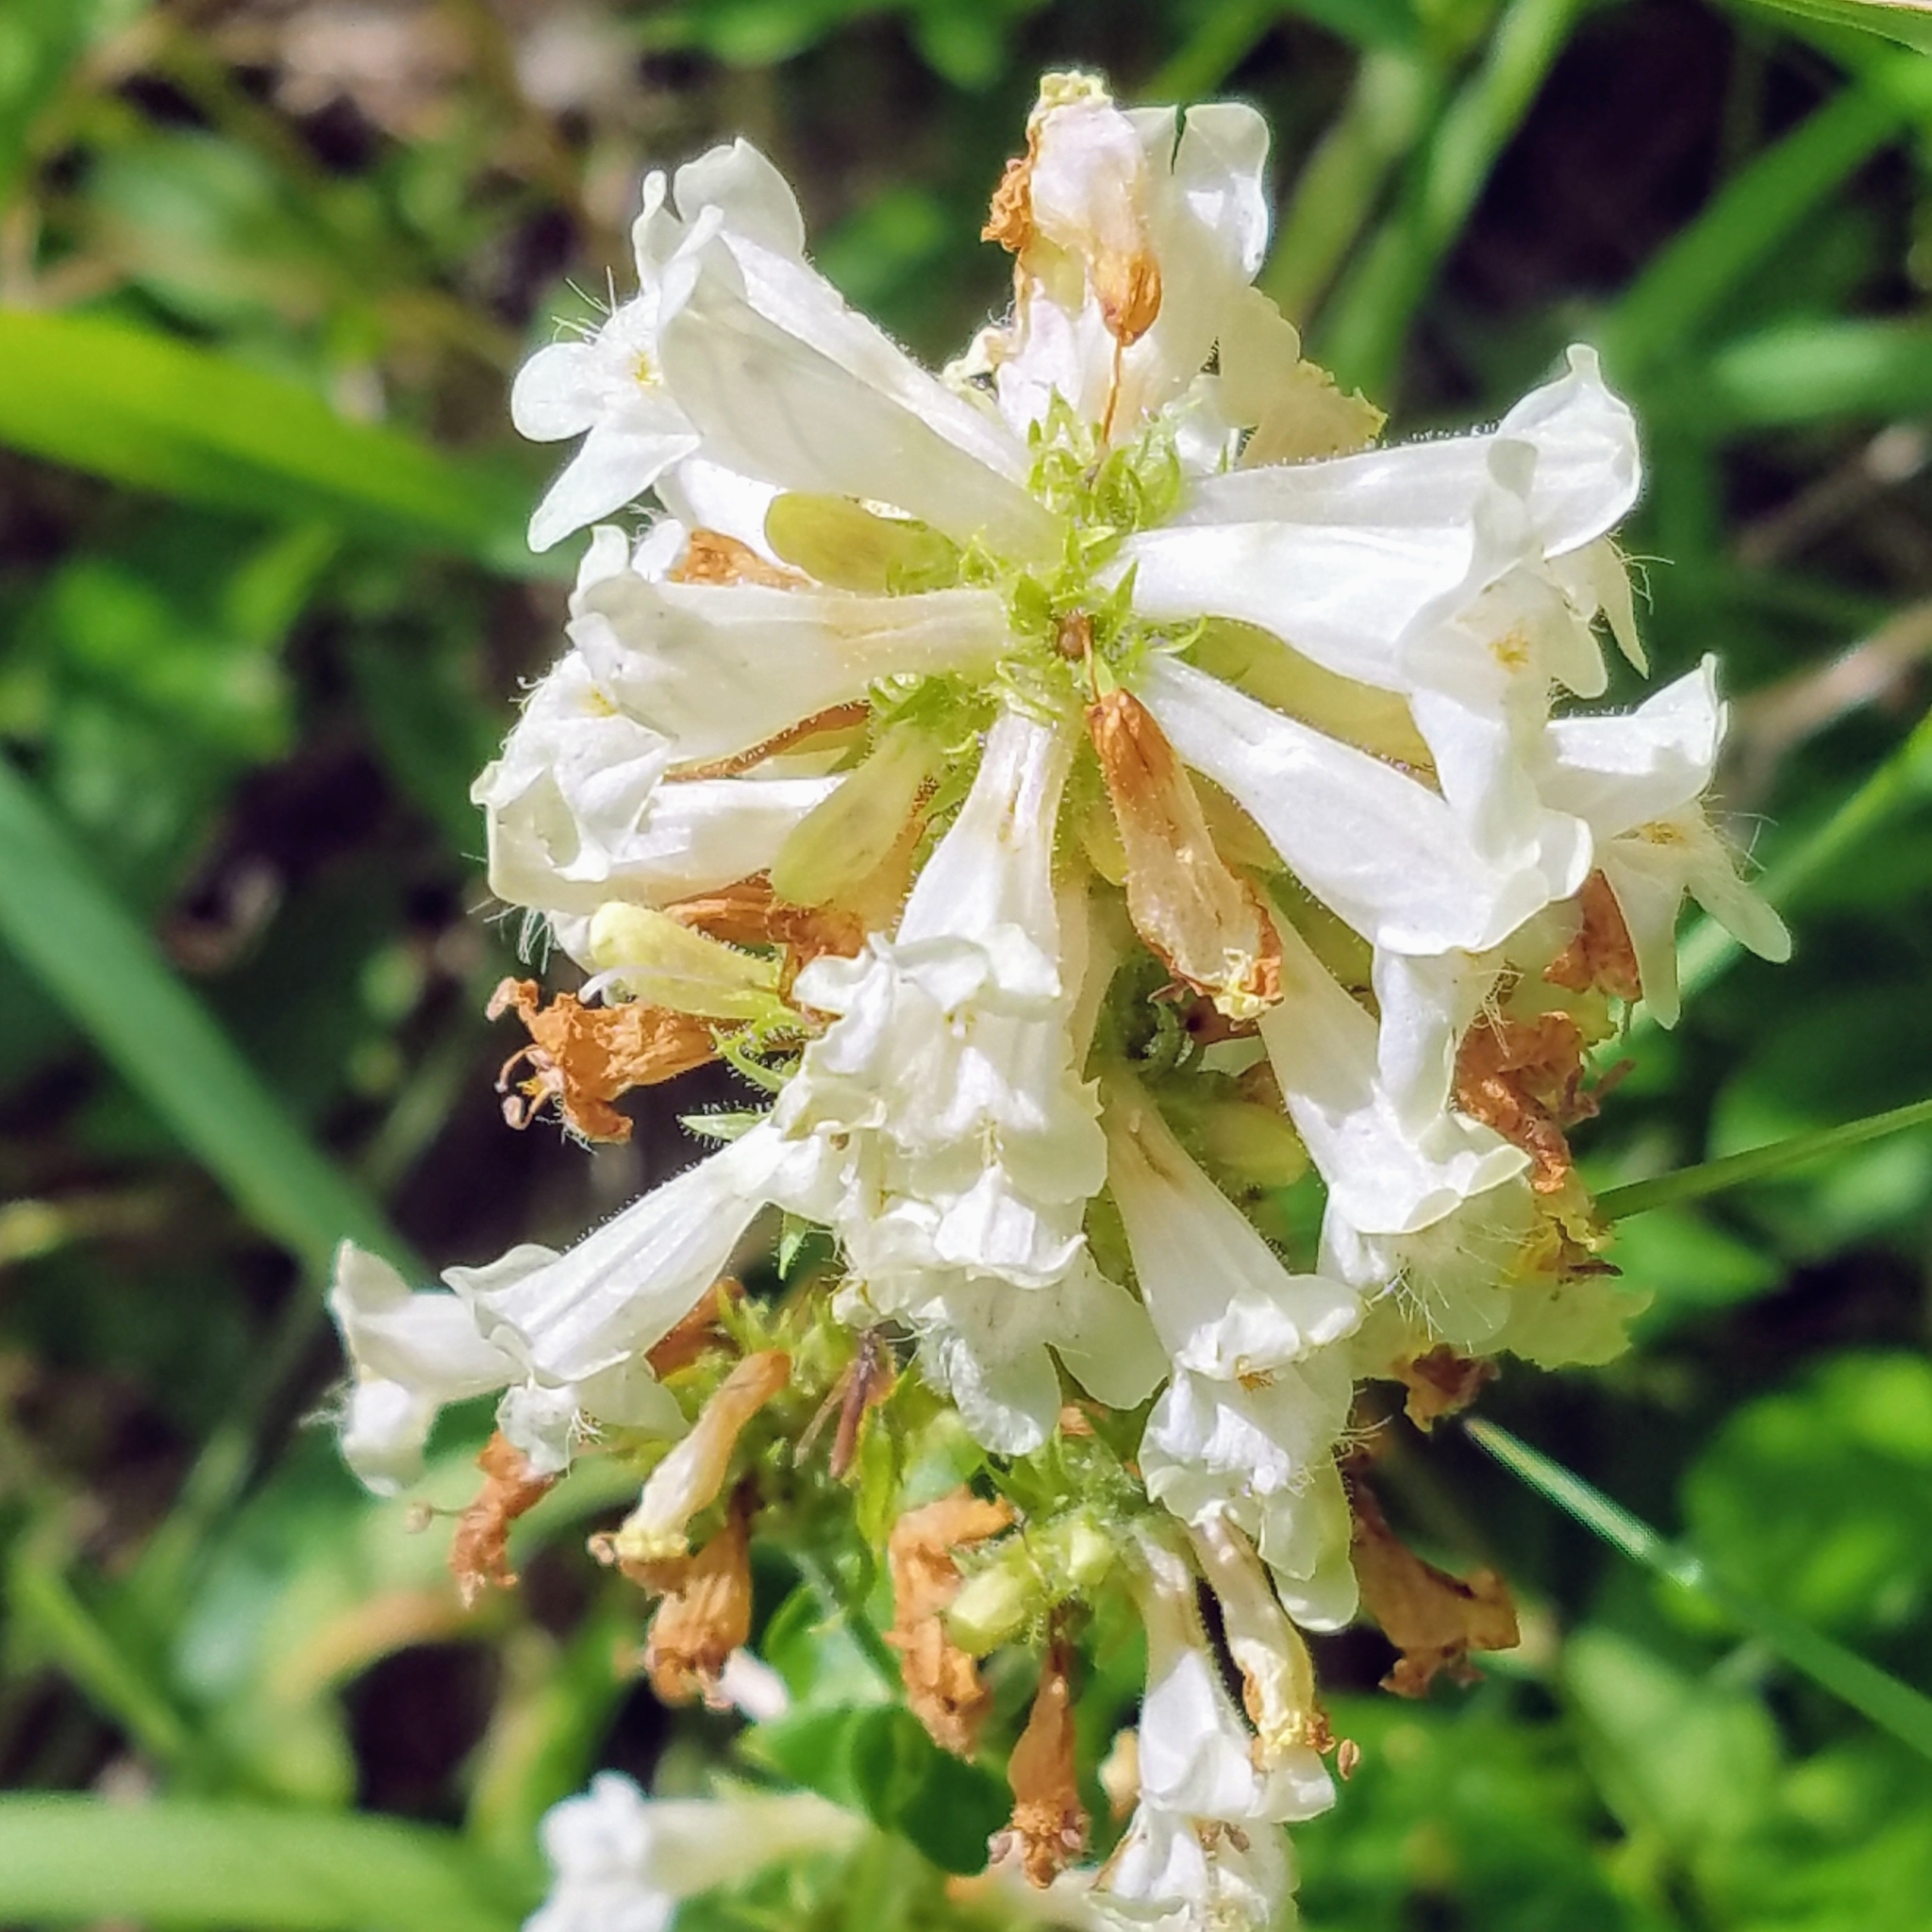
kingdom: Plantae
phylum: Tracheophyta
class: Magnoliopsida
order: Lamiales
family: Plantaginaceae
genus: Penstemon
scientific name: Penstemon confertus
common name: Lesser yellow beardtongue
